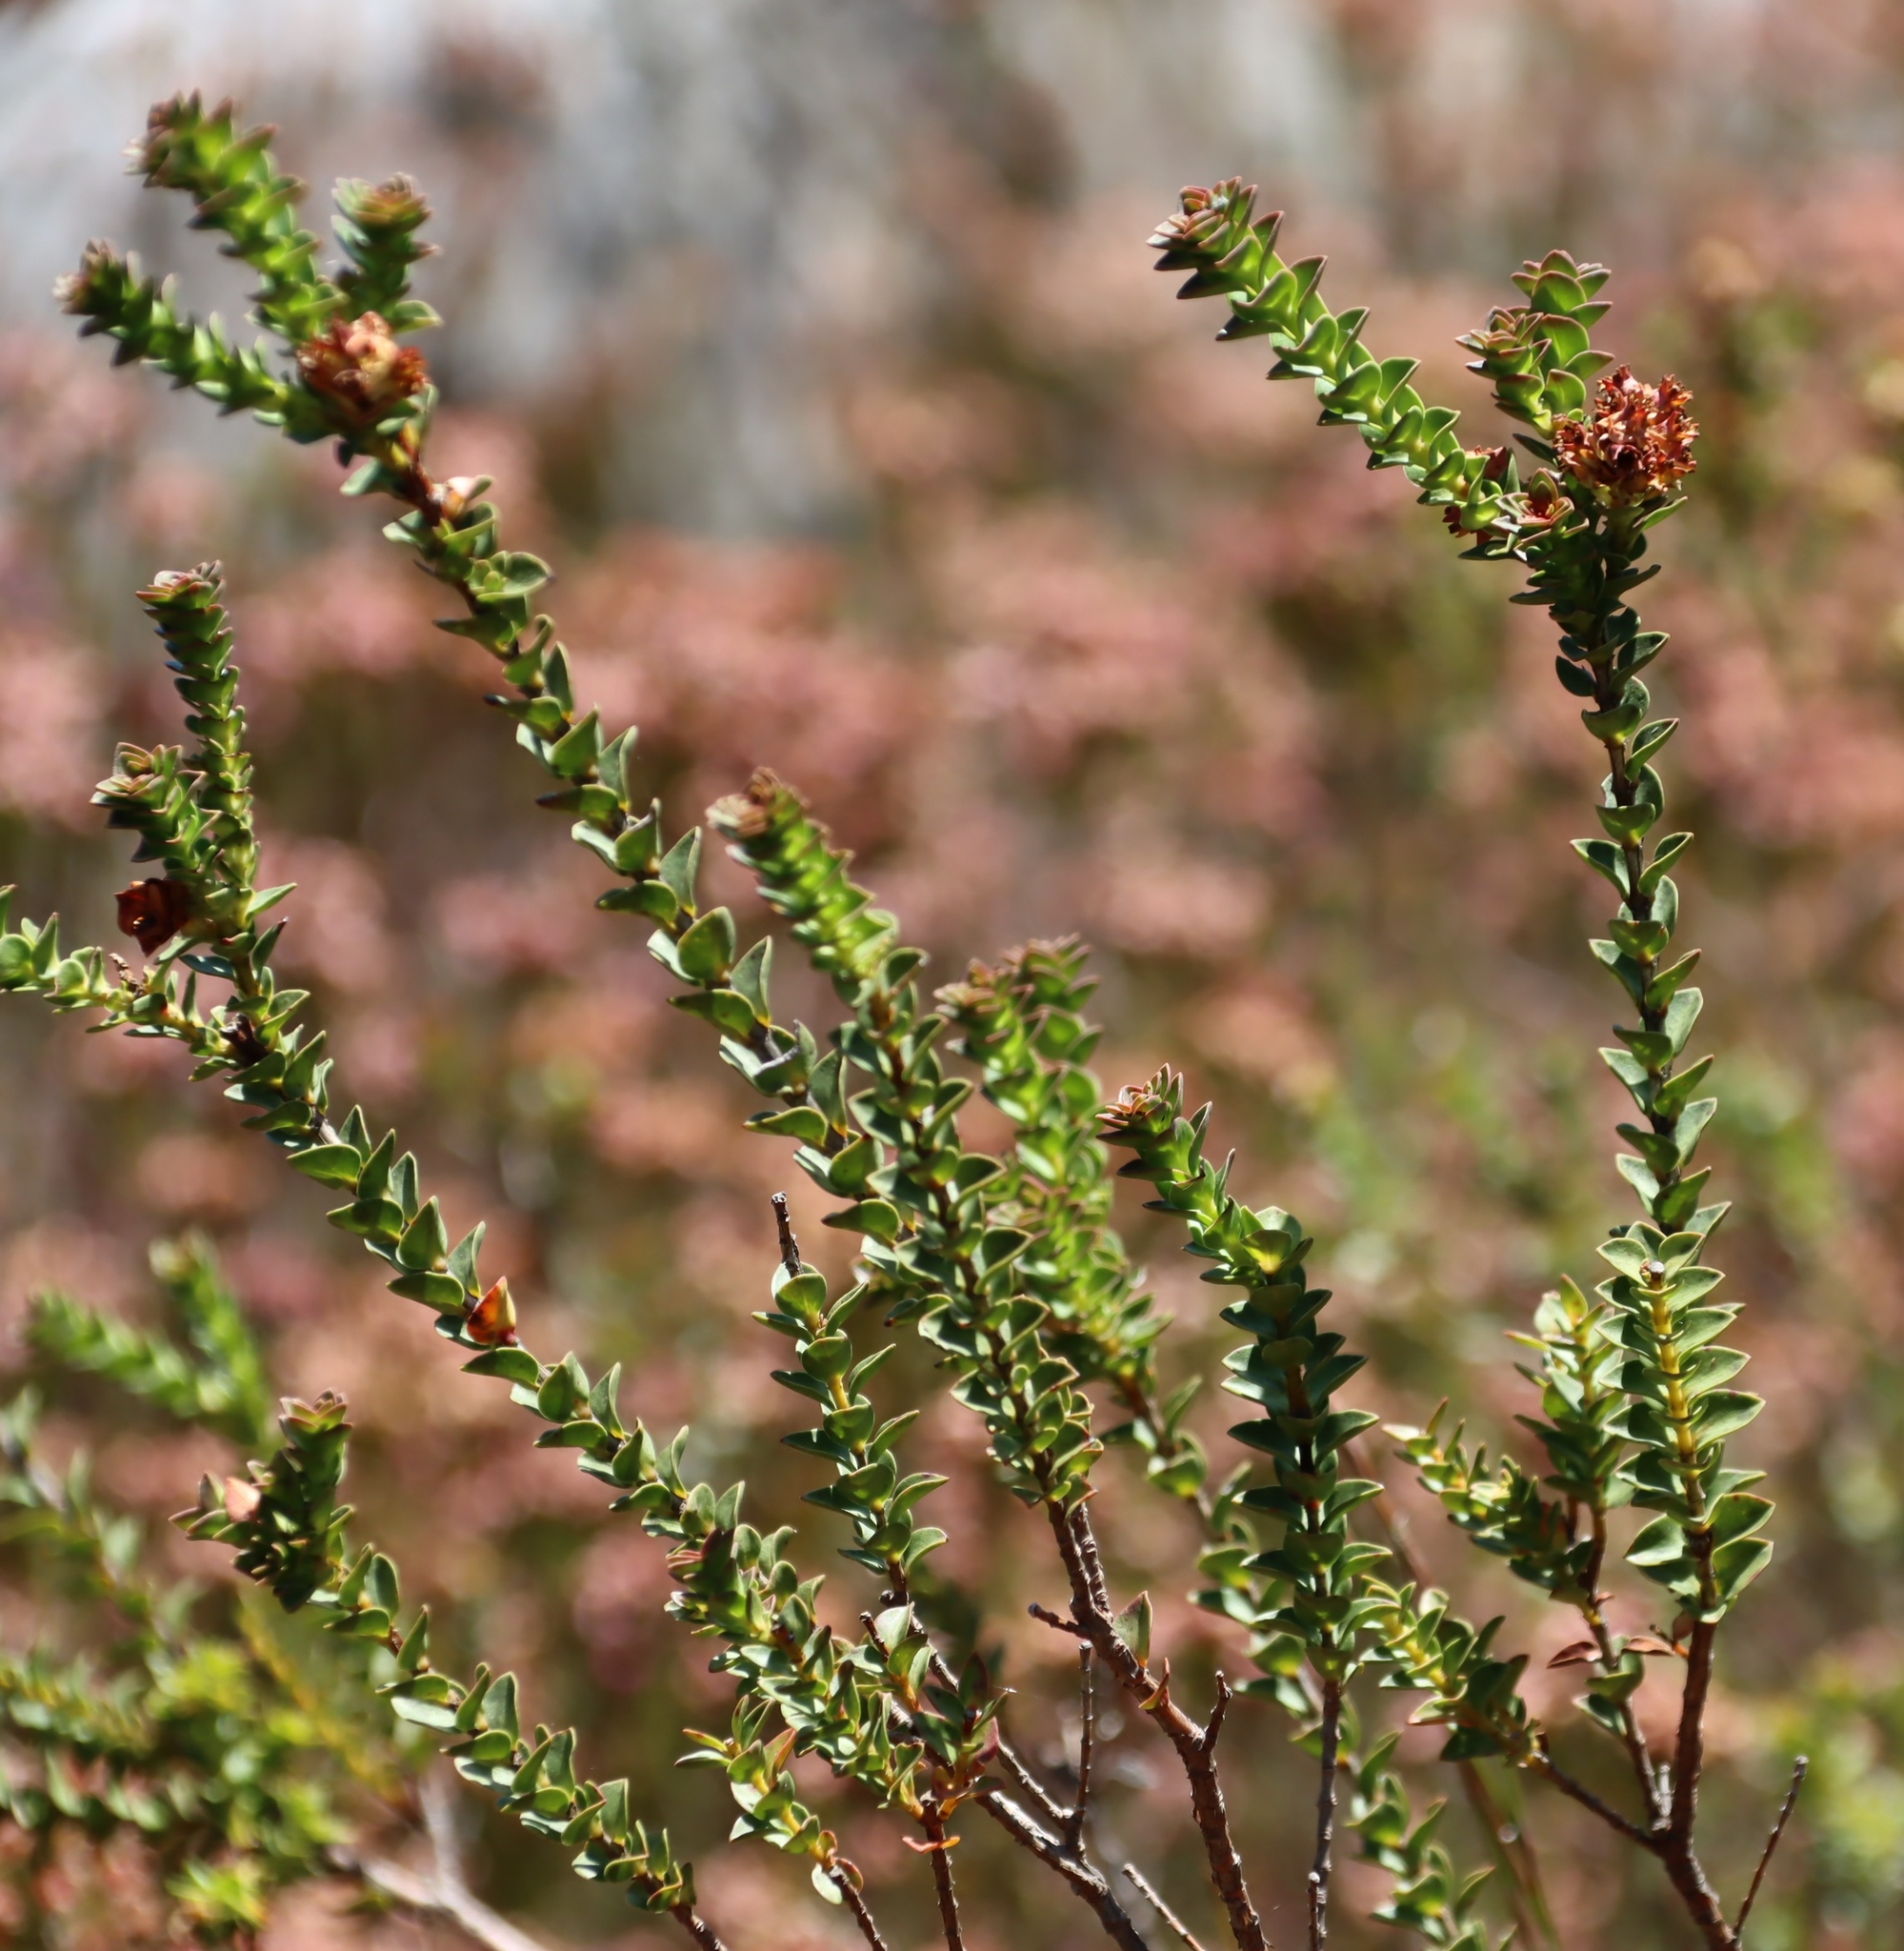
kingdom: Plantae
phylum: Tracheophyta
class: Magnoliopsida
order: Myrtales
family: Penaeaceae
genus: Penaea
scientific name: Penaea cneorum
